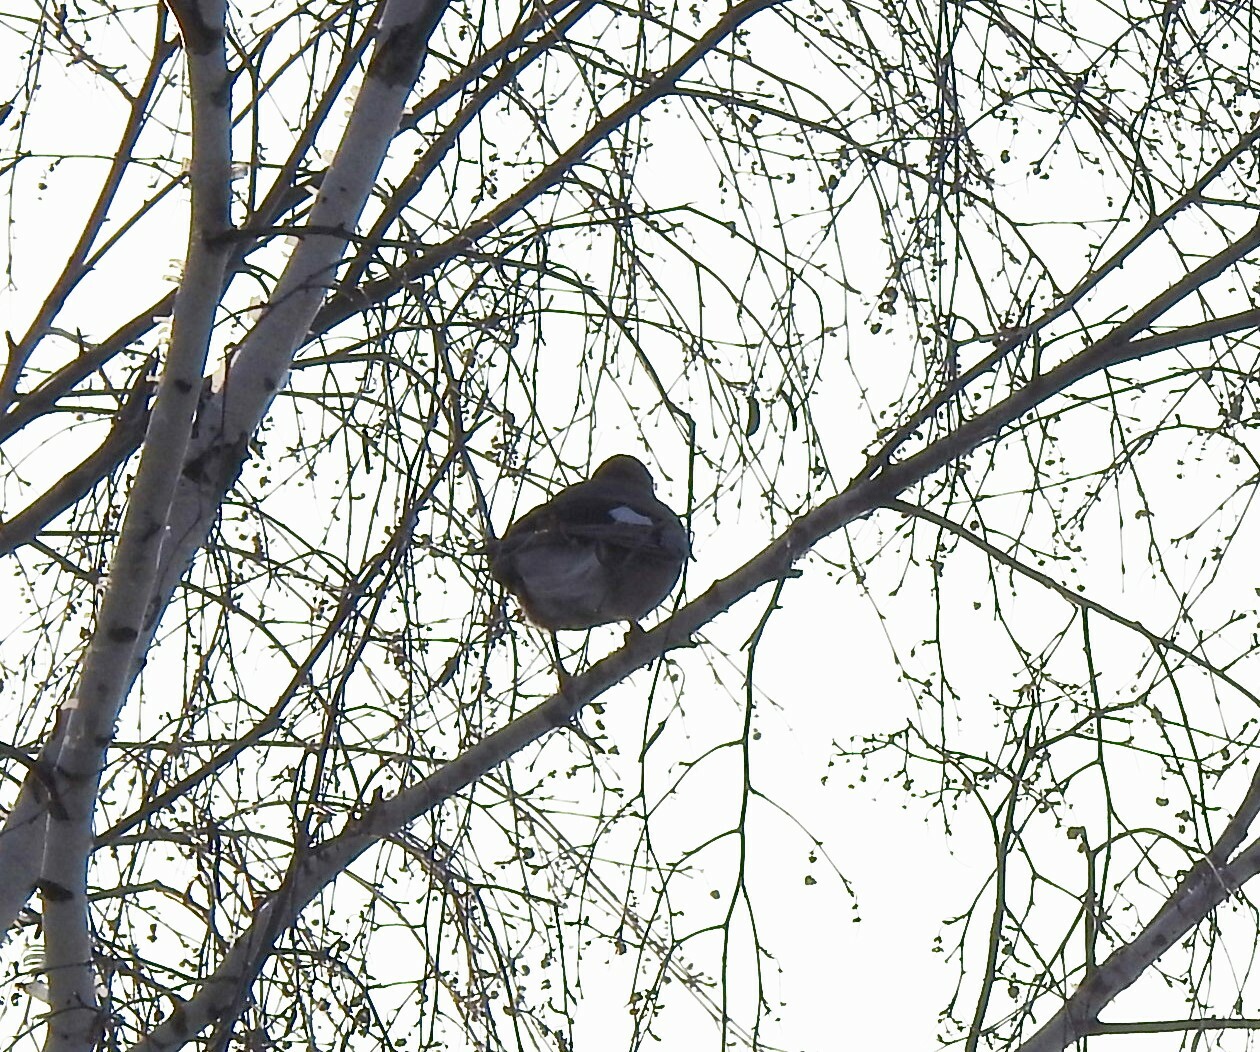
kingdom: Animalia
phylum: Chordata
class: Aves
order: Passeriformes
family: Corvidae
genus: Garrulus
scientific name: Garrulus glandarius
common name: Eurasian jay
